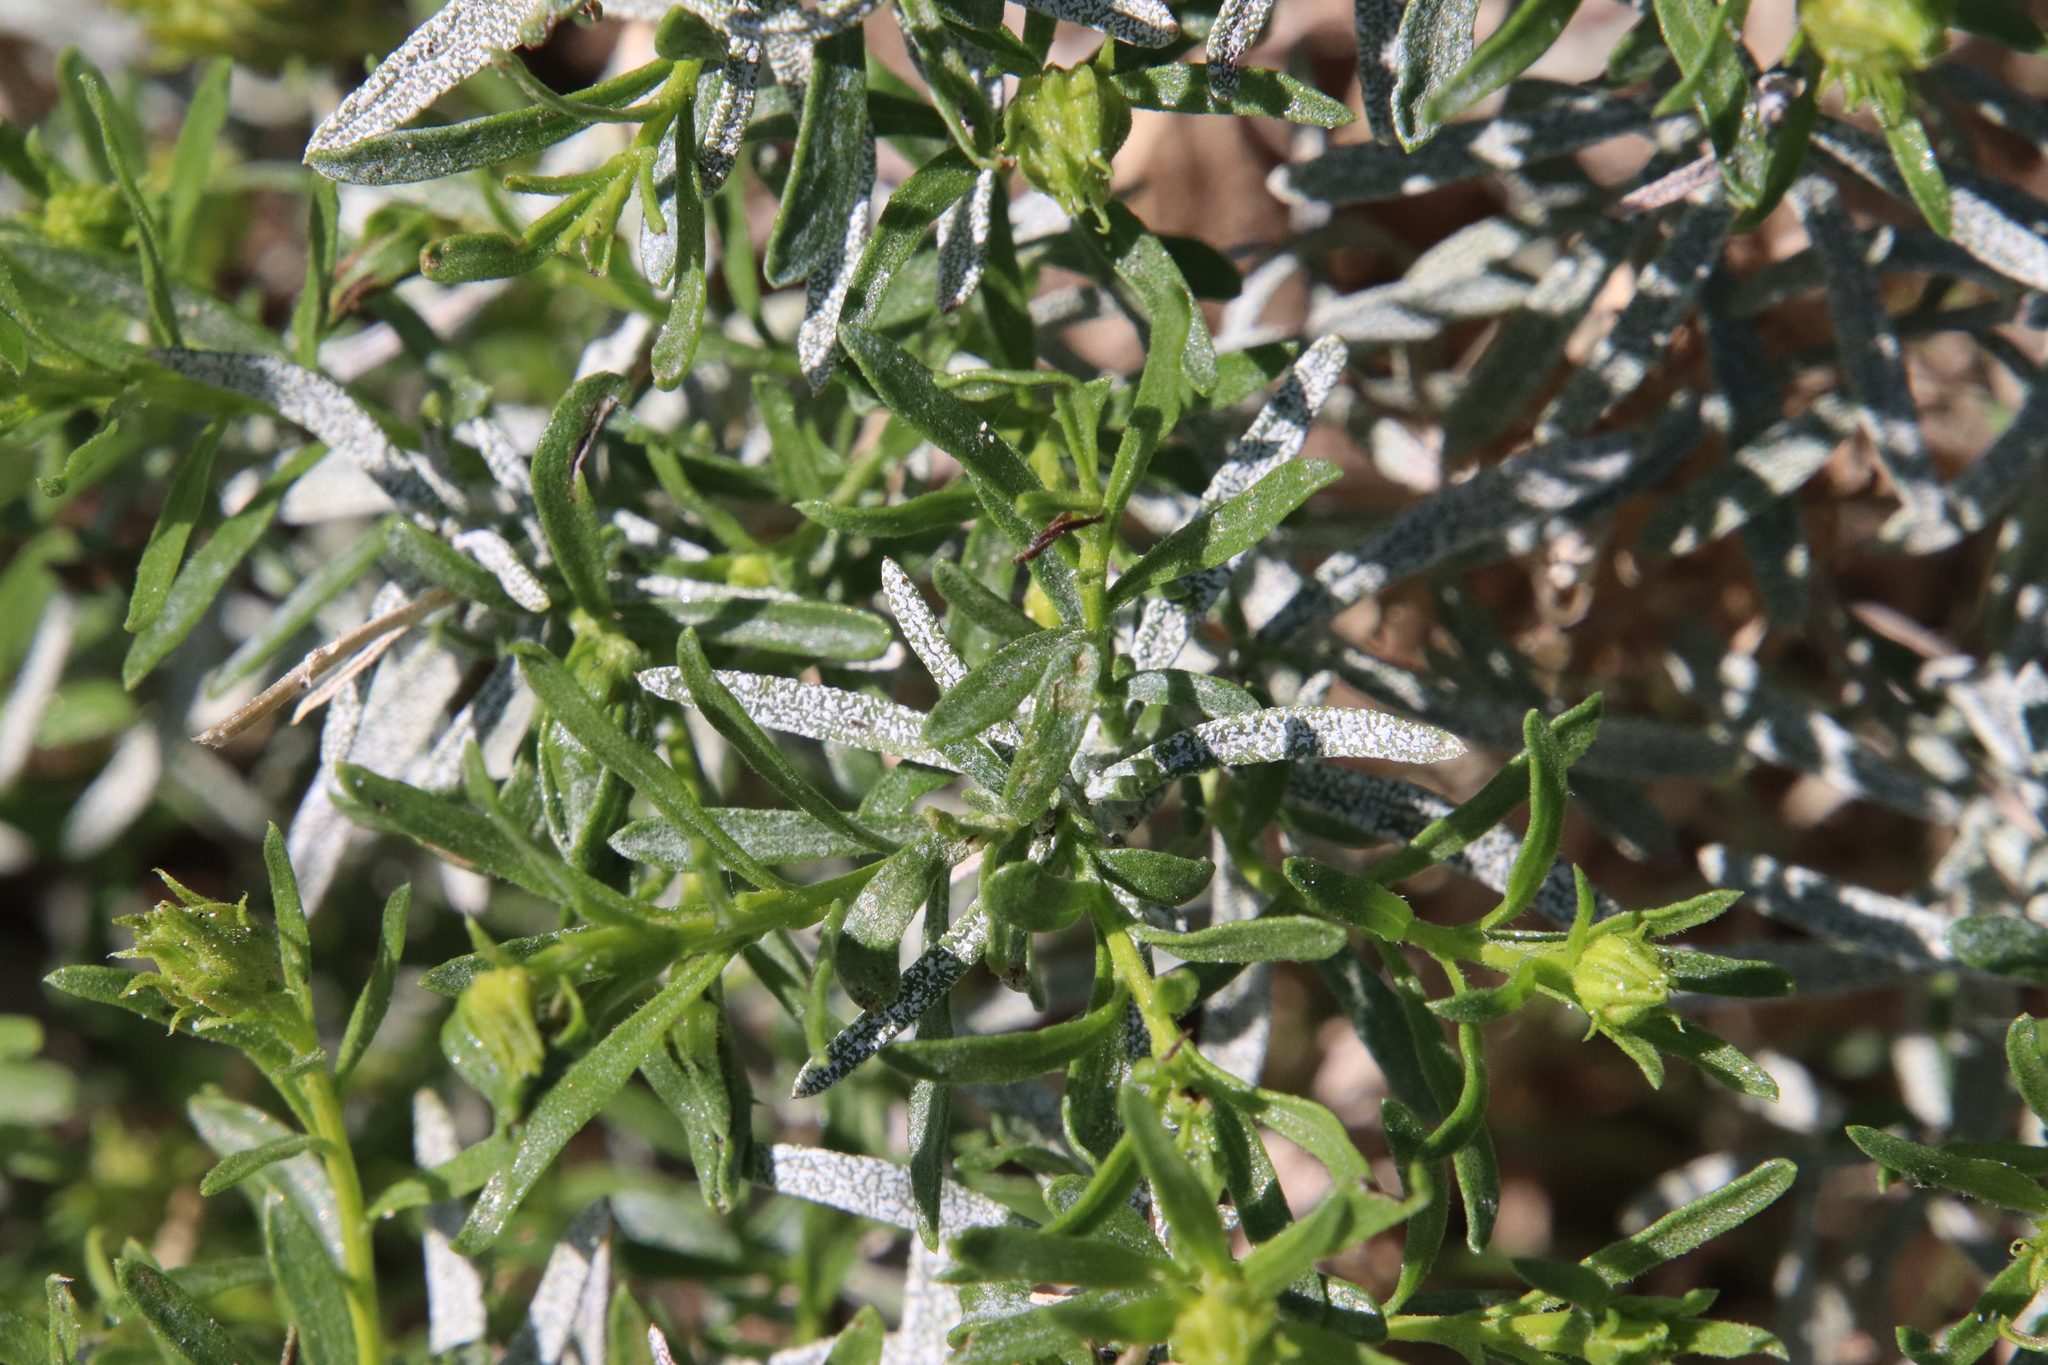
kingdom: Plantae
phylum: Tracheophyta
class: Magnoliopsida
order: Asterales
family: Asteraceae
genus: Ericameria
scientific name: Ericameria linearifolia
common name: Interior goldenbush
